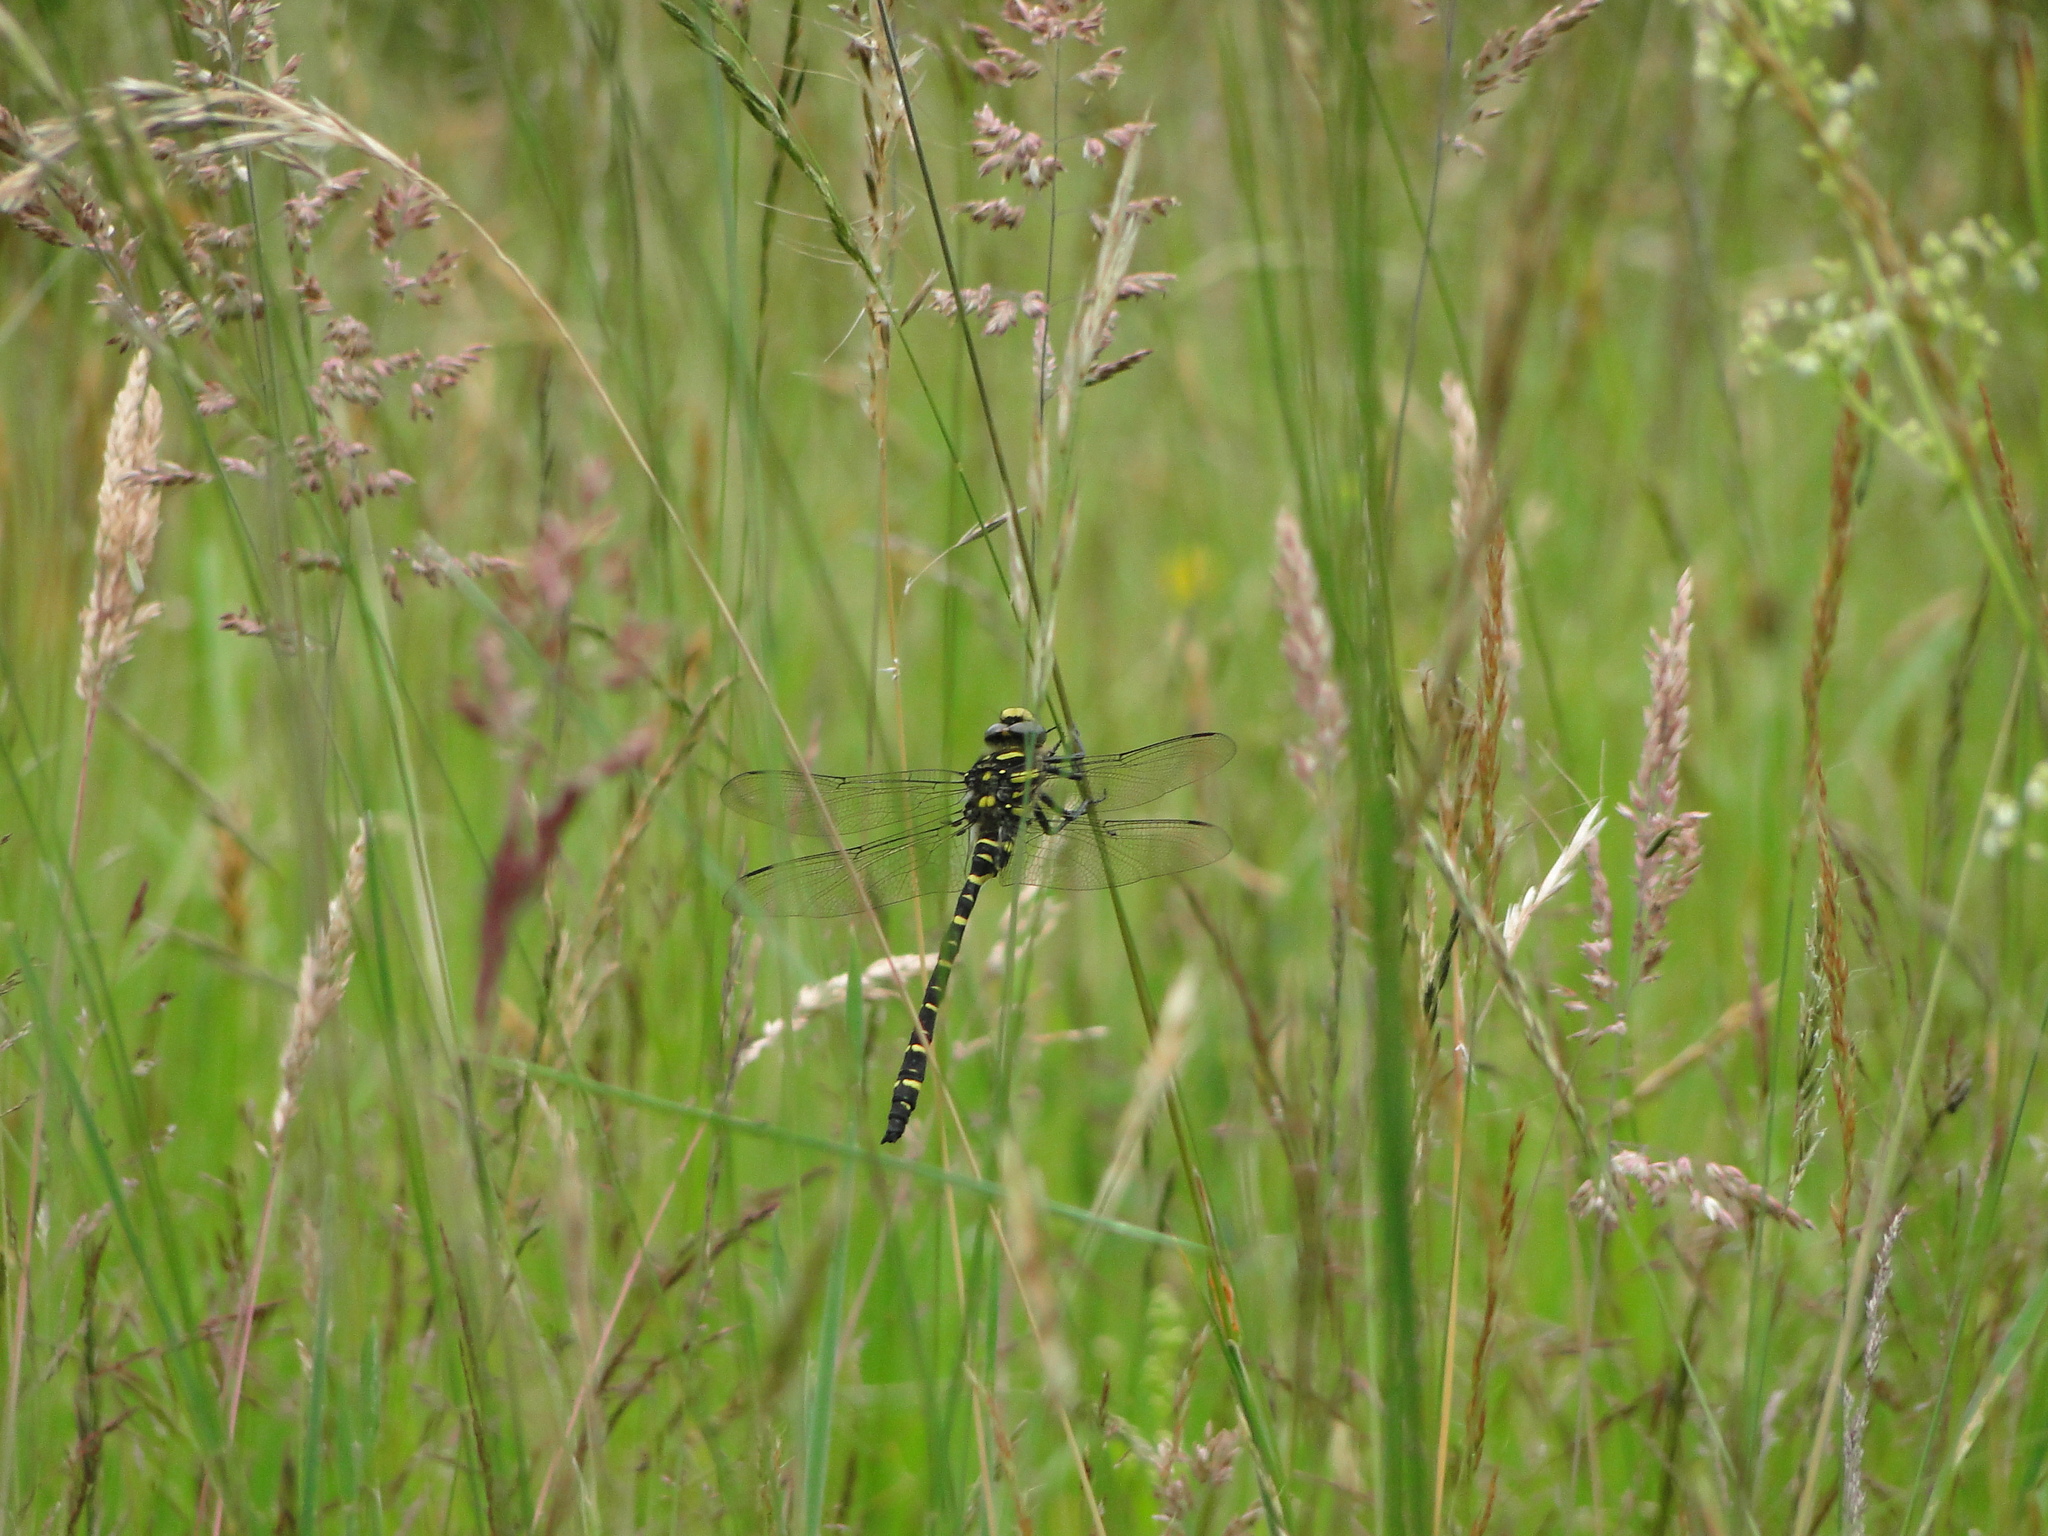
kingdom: Animalia
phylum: Arthropoda
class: Insecta
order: Odonata
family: Cordulegastridae
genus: Cordulegaster
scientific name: Cordulegaster boltonii
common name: Golden-ringed dragonfly
